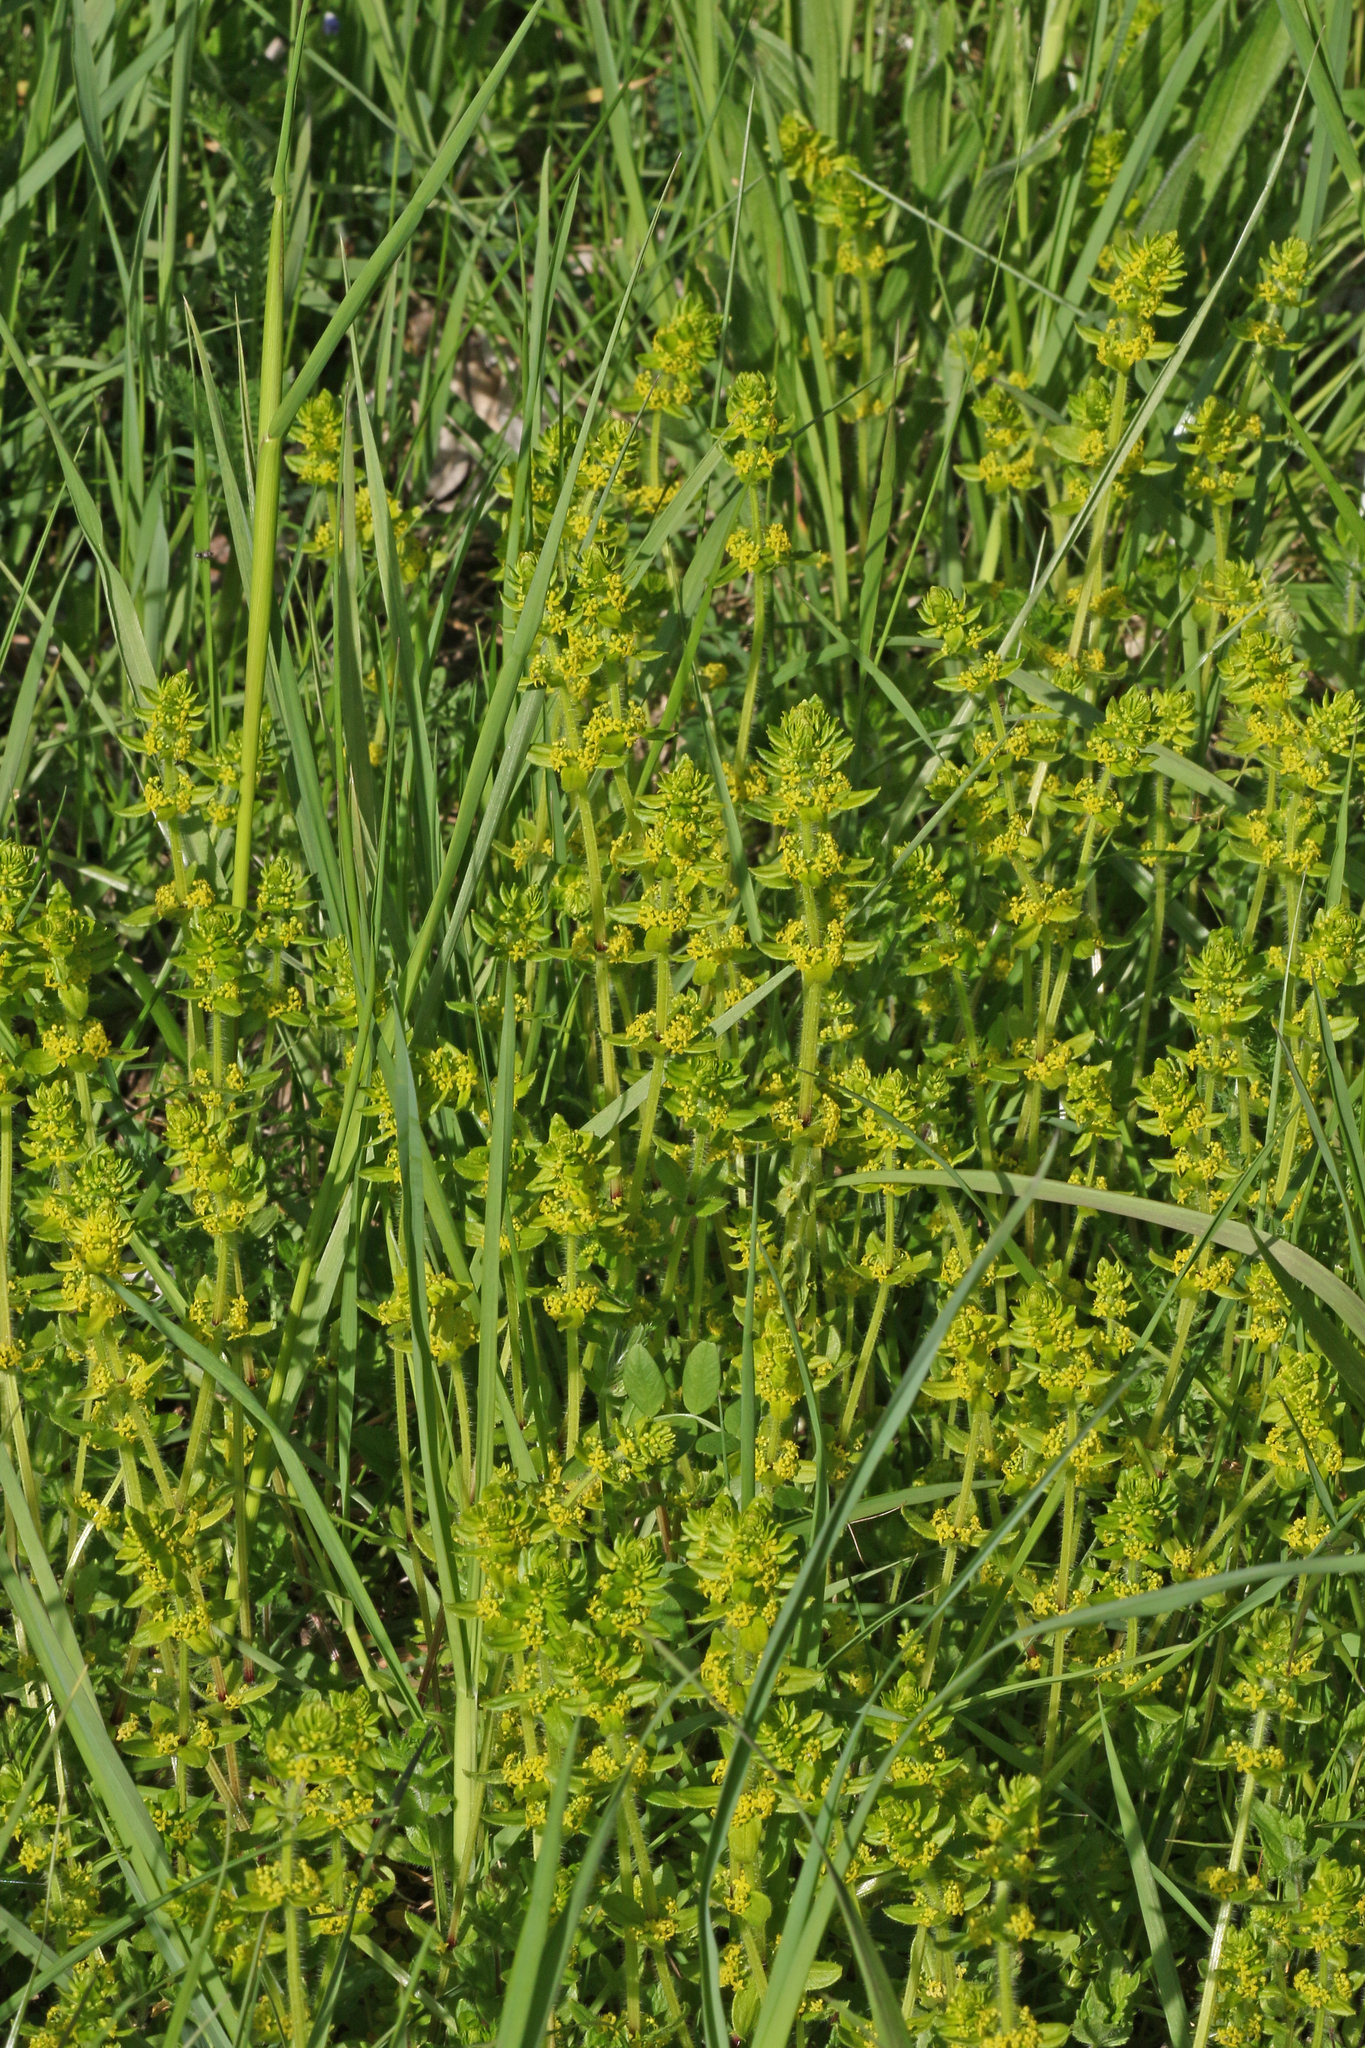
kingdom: Plantae
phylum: Tracheophyta
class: Magnoliopsida
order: Gentianales
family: Rubiaceae
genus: Cruciata
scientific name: Cruciata laevipes
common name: Crosswort
